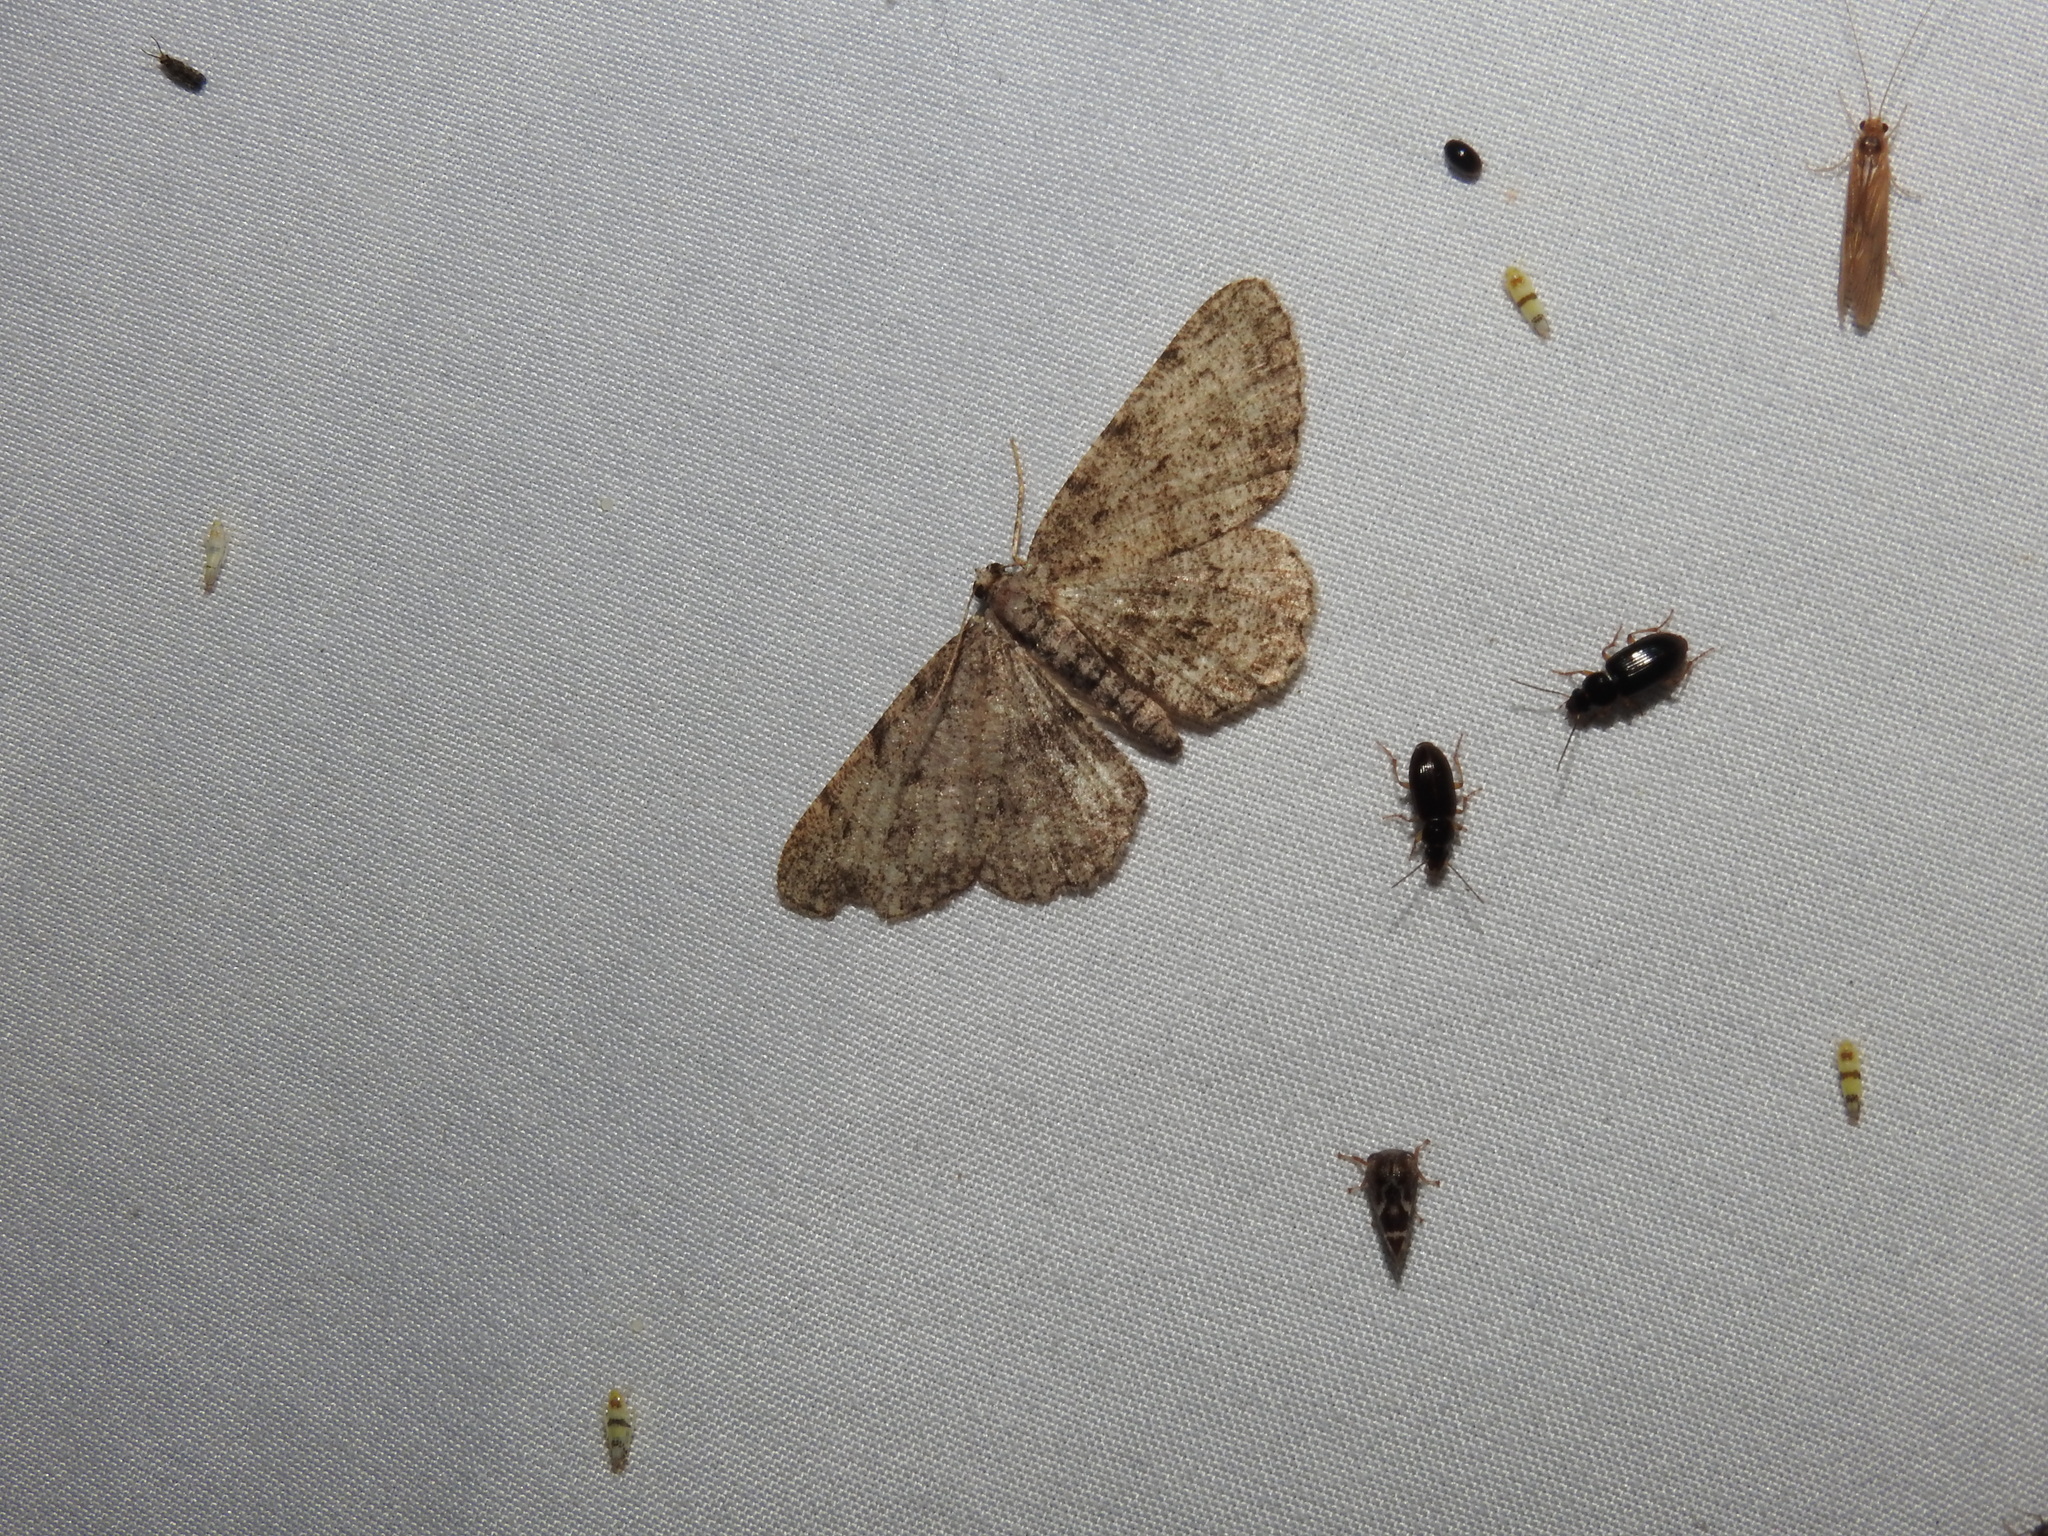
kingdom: Animalia
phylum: Arthropoda
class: Insecta
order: Lepidoptera
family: Geometridae
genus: Aethalura
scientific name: Aethalura intertexta
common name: Four-barred gray
